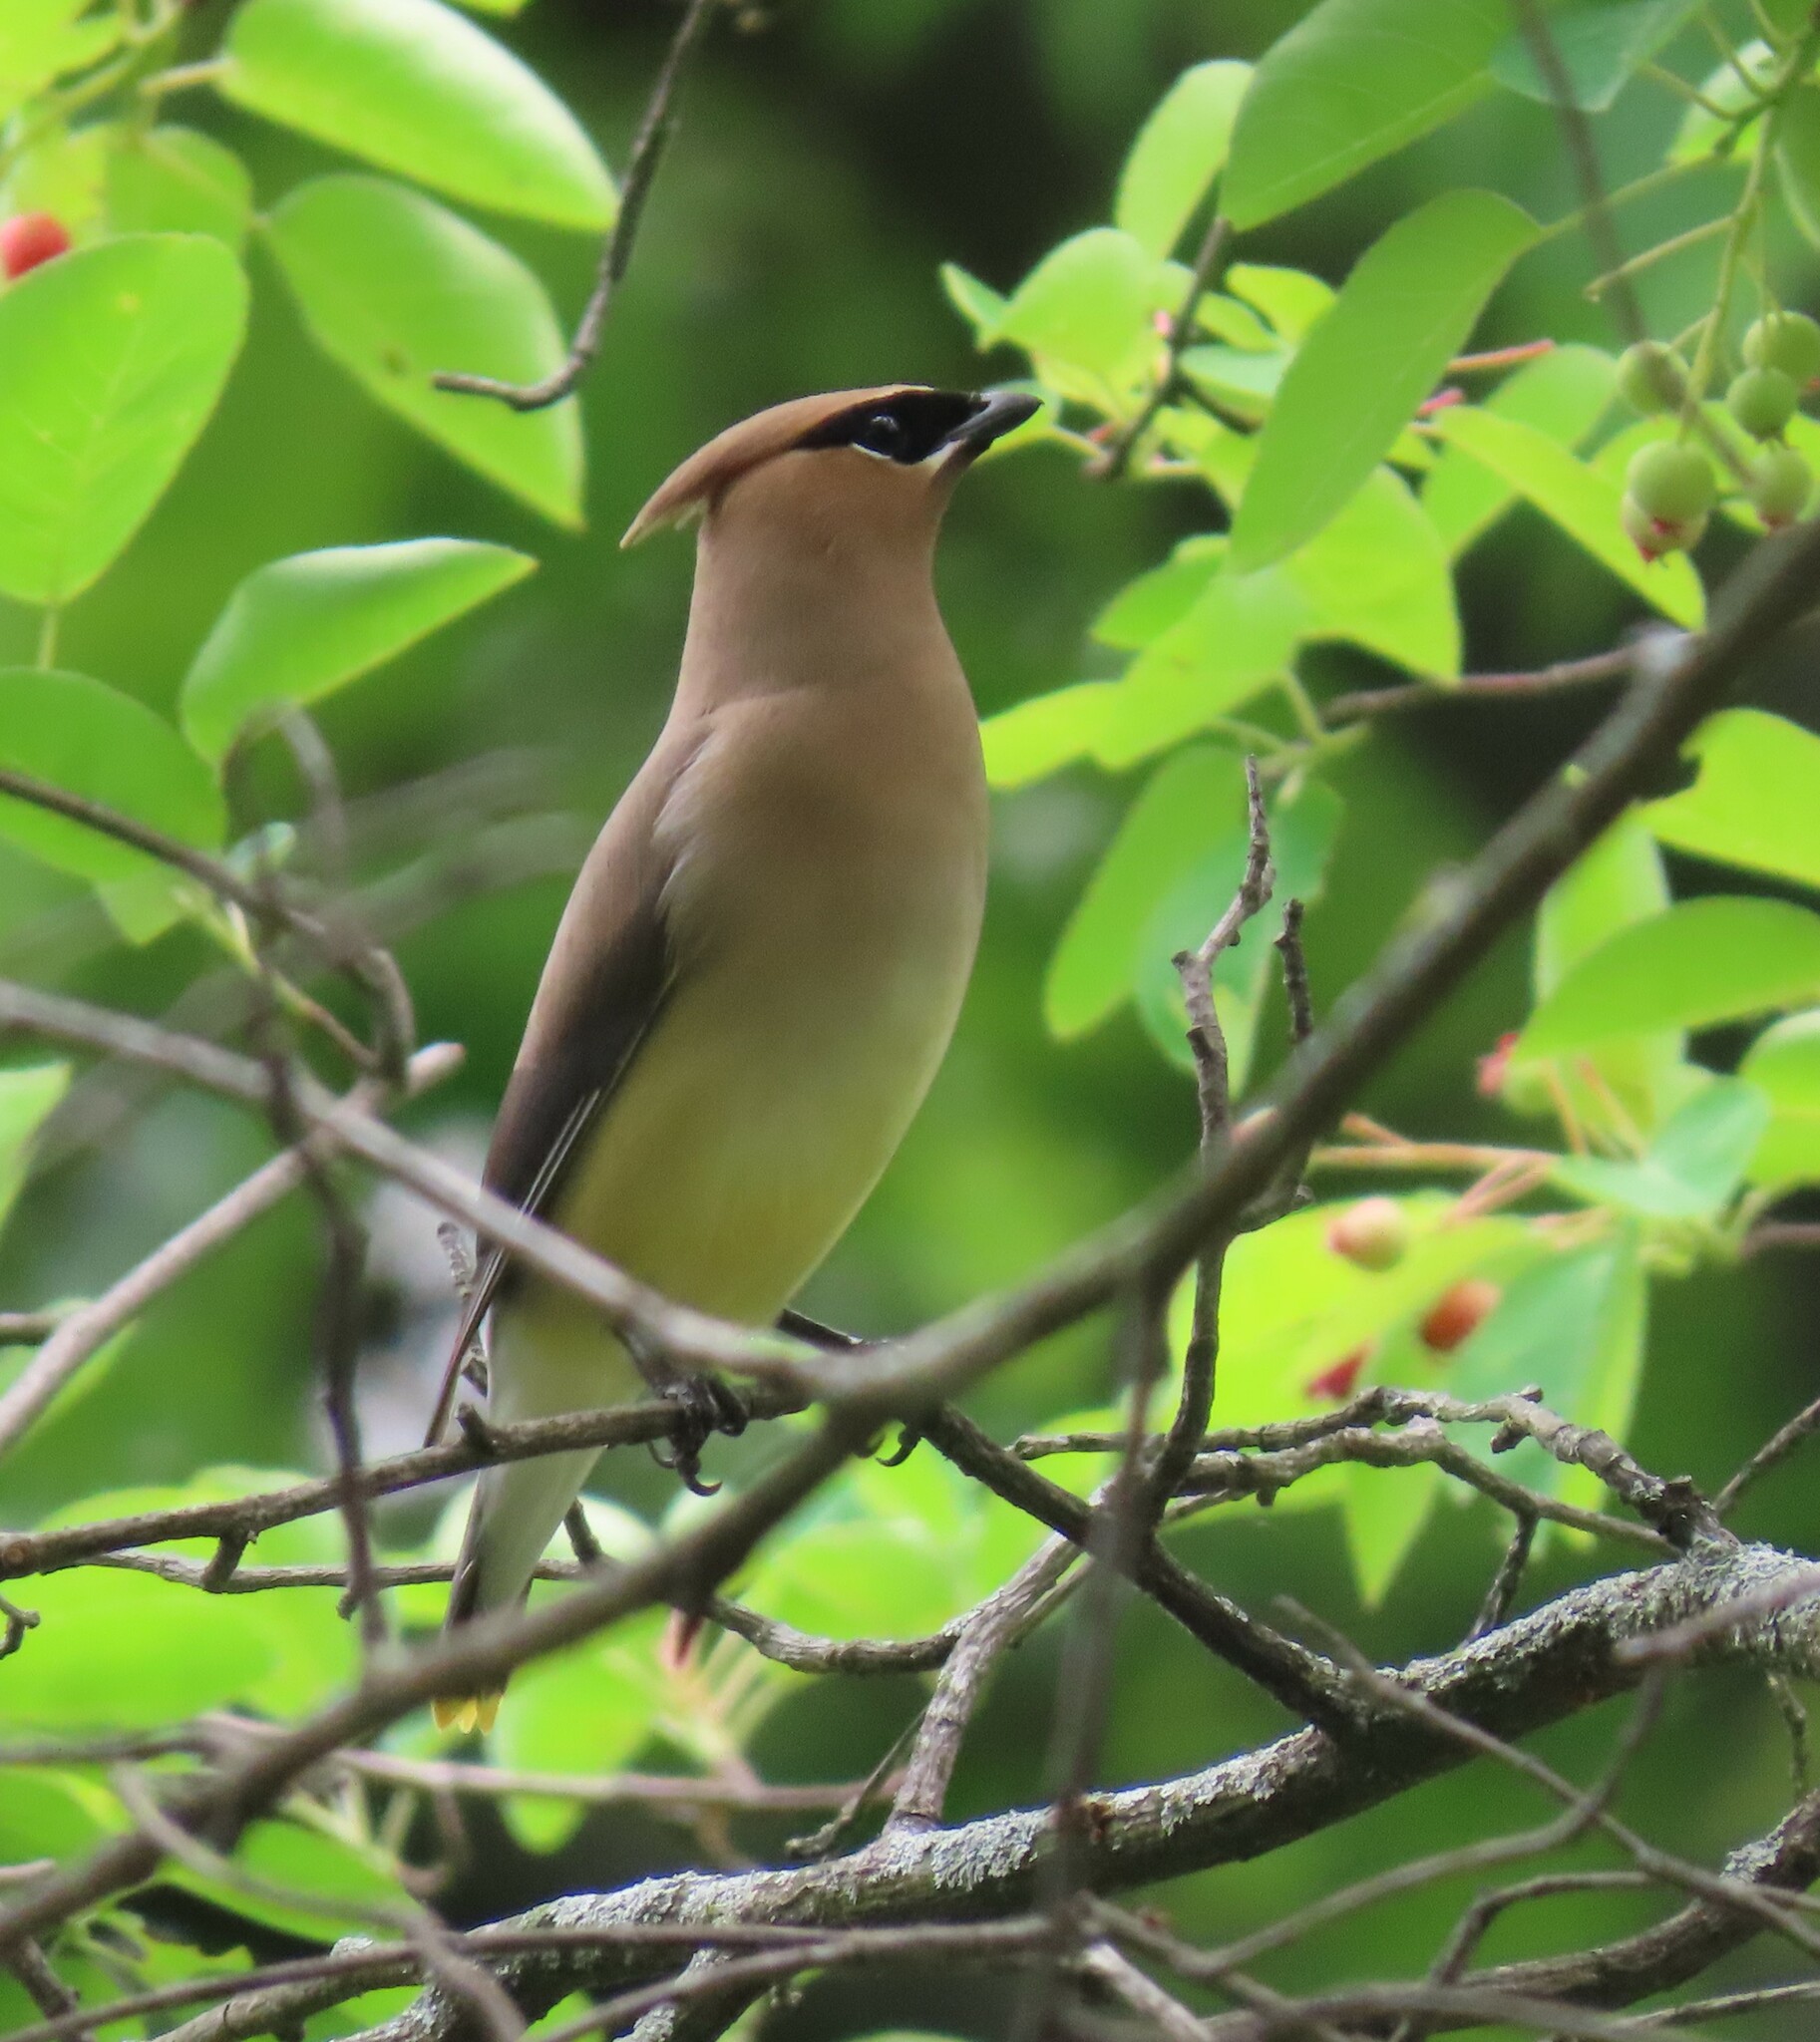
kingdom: Animalia
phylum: Chordata
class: Aves
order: Passeriformes
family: Bombycillidae
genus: Bombycilla
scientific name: Bombycilla cedrorum
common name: Cedar waxwing
